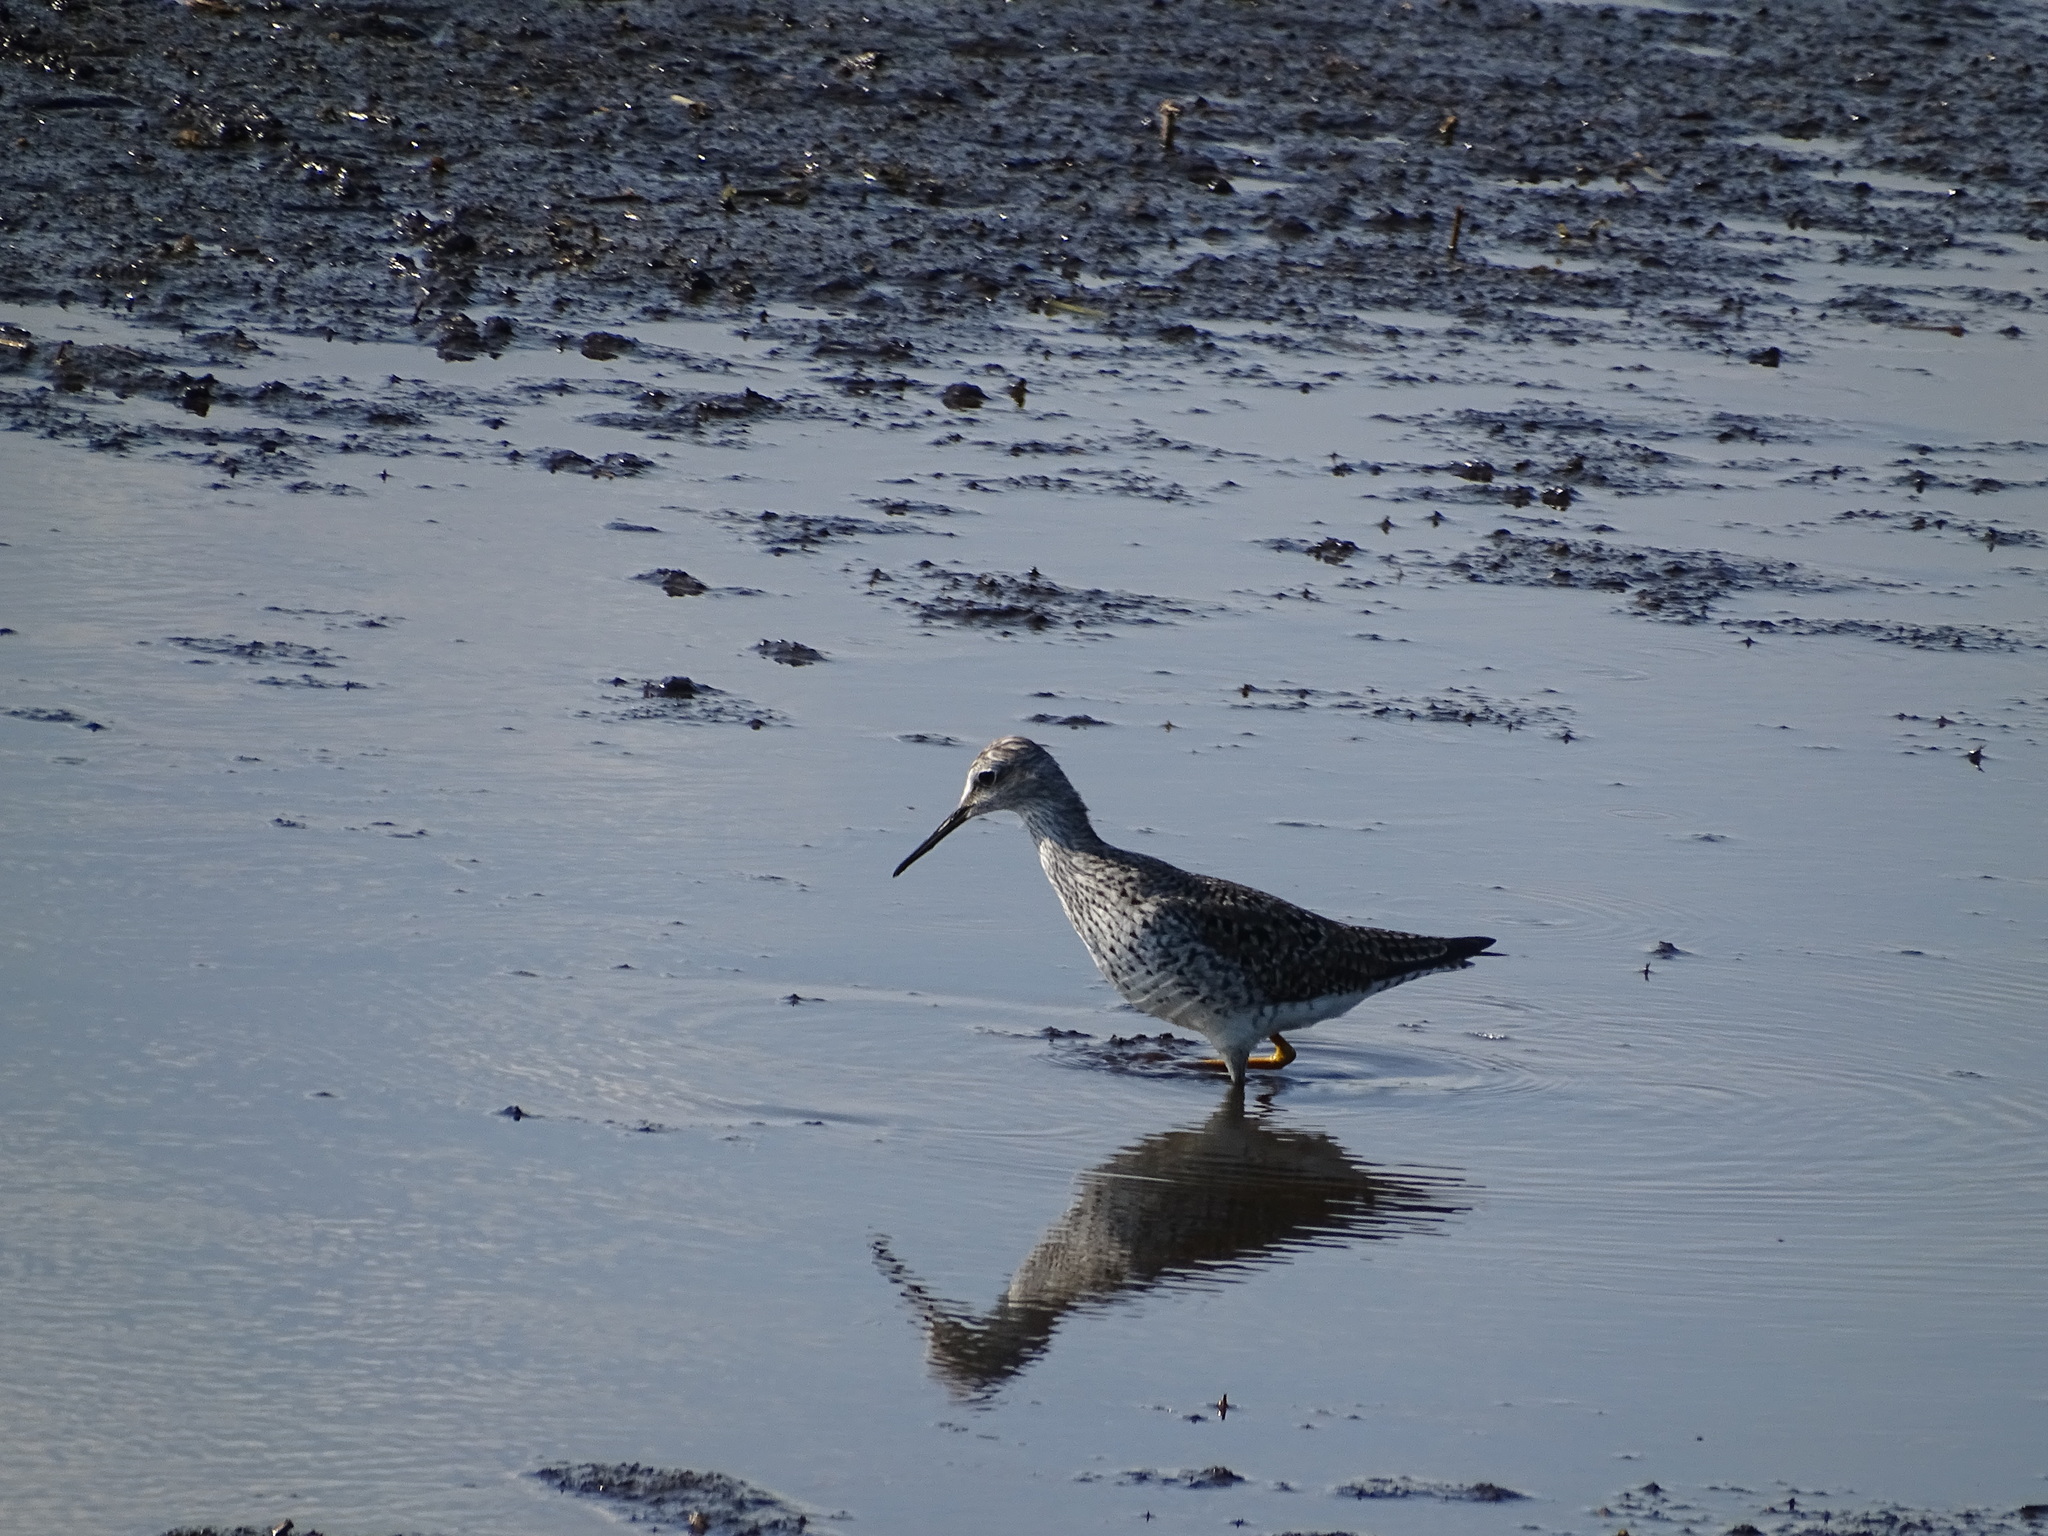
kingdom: Animalia
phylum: Chordata
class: Aves
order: Charadriiformes
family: Scolopacidae
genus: Tringa
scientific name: Tringa flavipes
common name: Lesser yellowlegs
